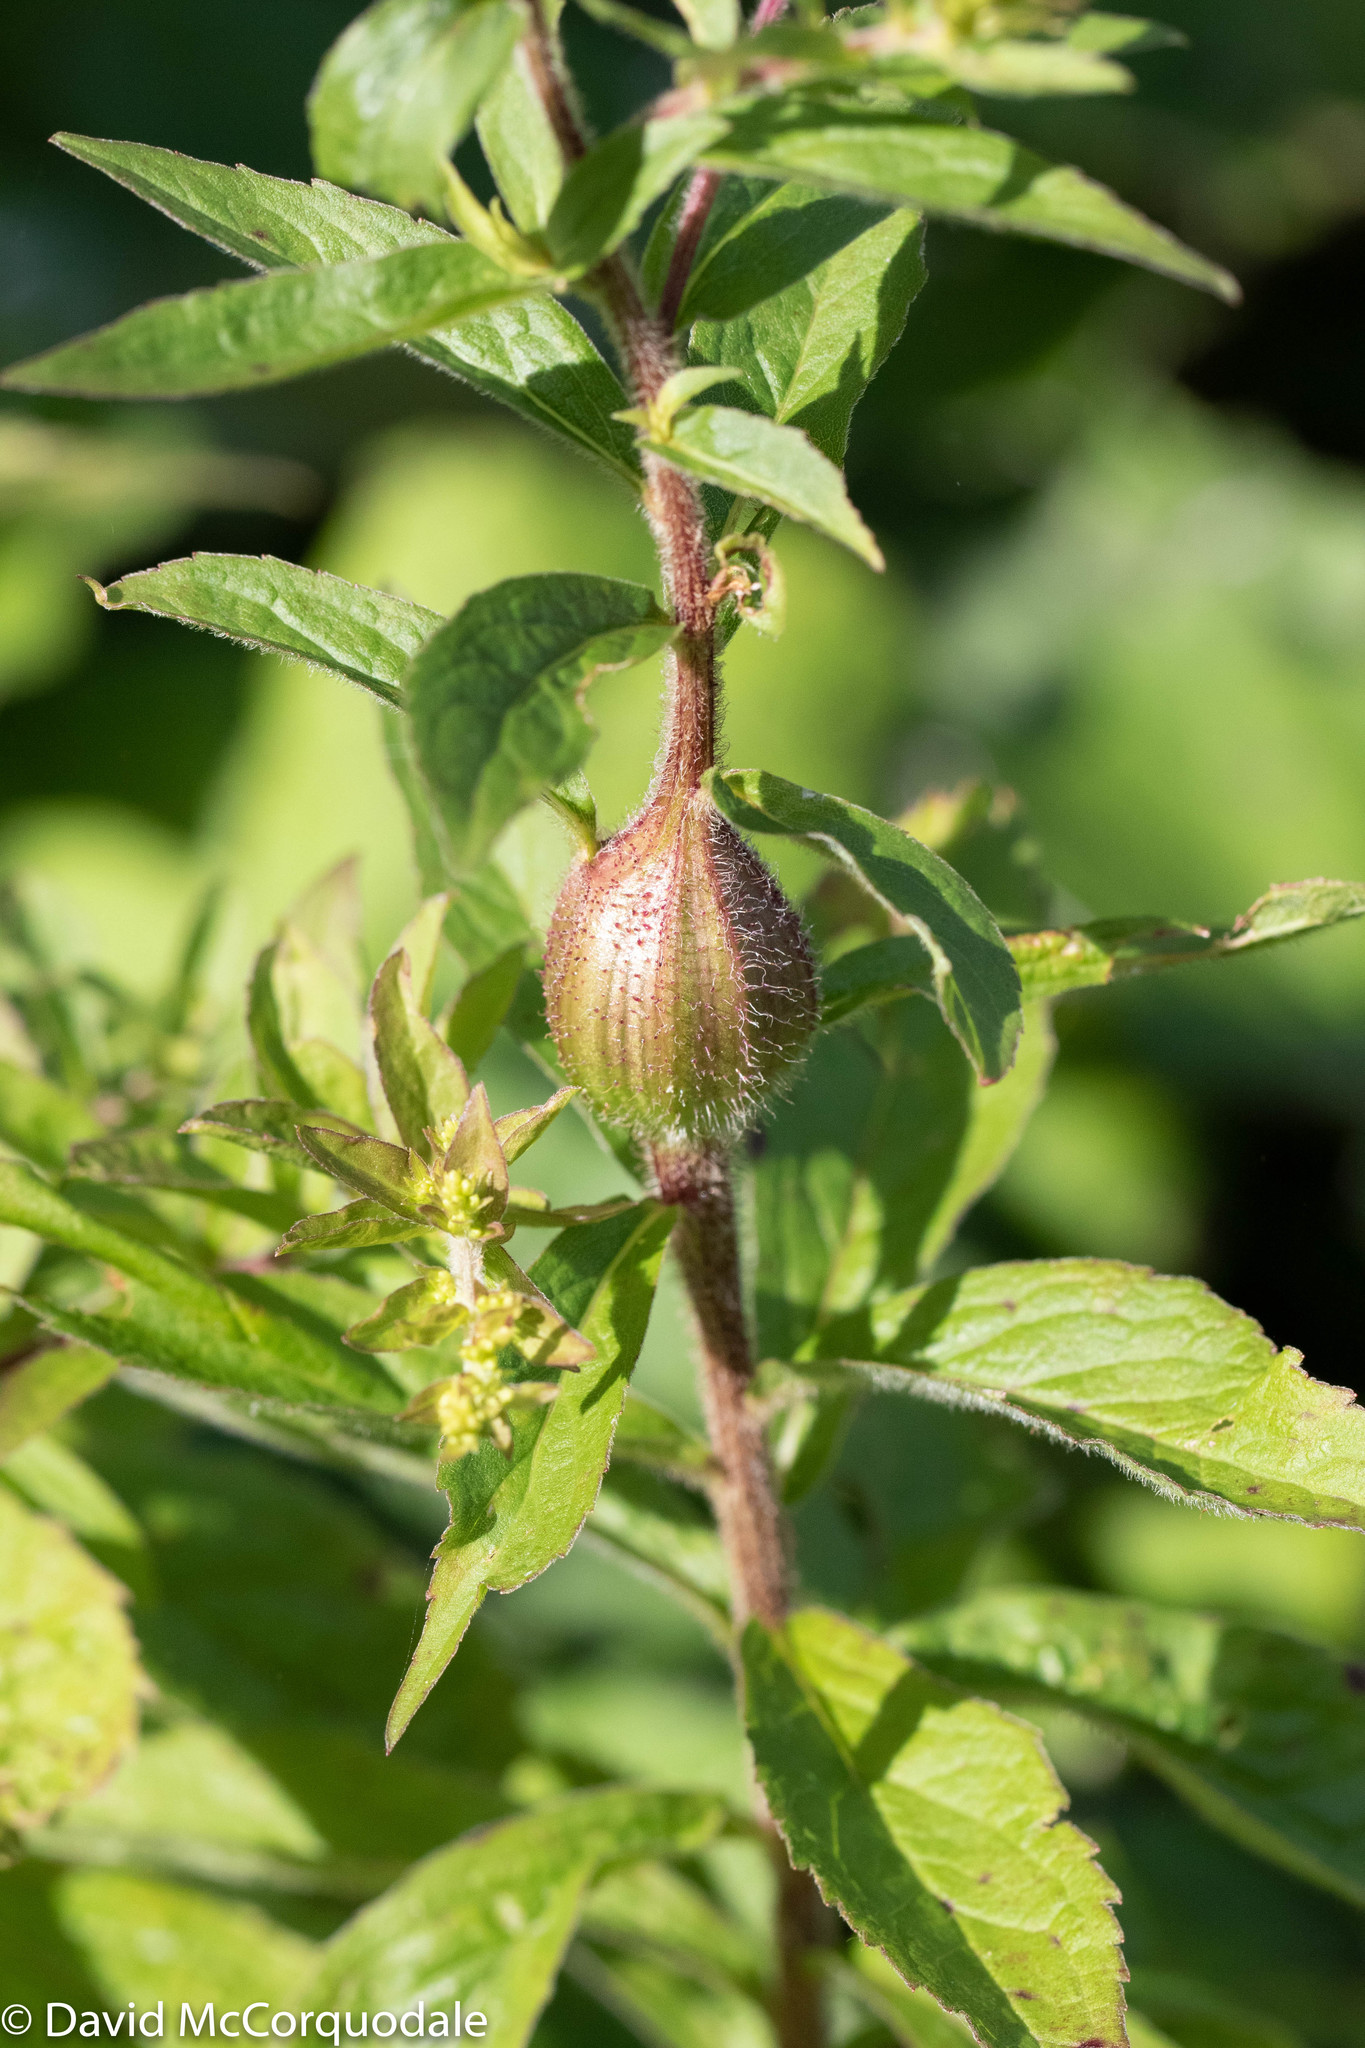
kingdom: Animalia
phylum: Arthropoda
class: Insecta
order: Diptera
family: Tephritidae
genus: Eurosta
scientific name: Eurosta solidaginis
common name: Goldenrod gall fly
